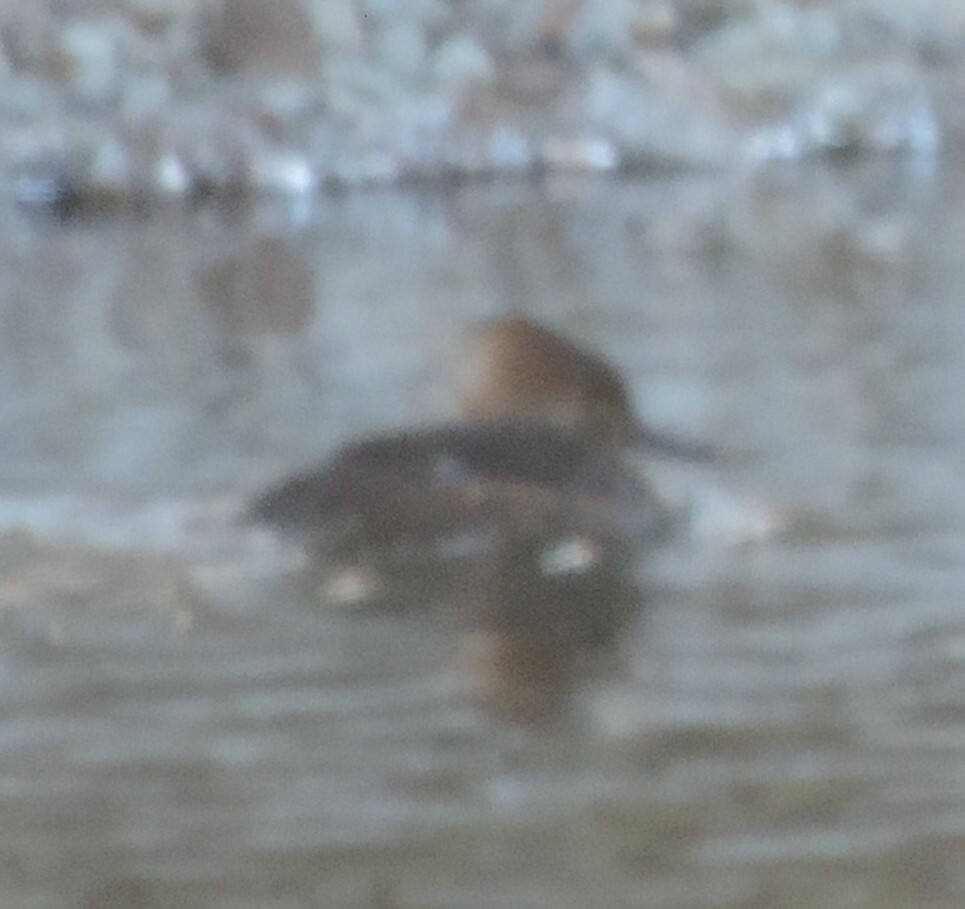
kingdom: Animalia
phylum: Chordata
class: Aves
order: Anseriformes
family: Anatidae
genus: Lophodytes
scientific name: Lophodytes cucullatus
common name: Hooded merganser
